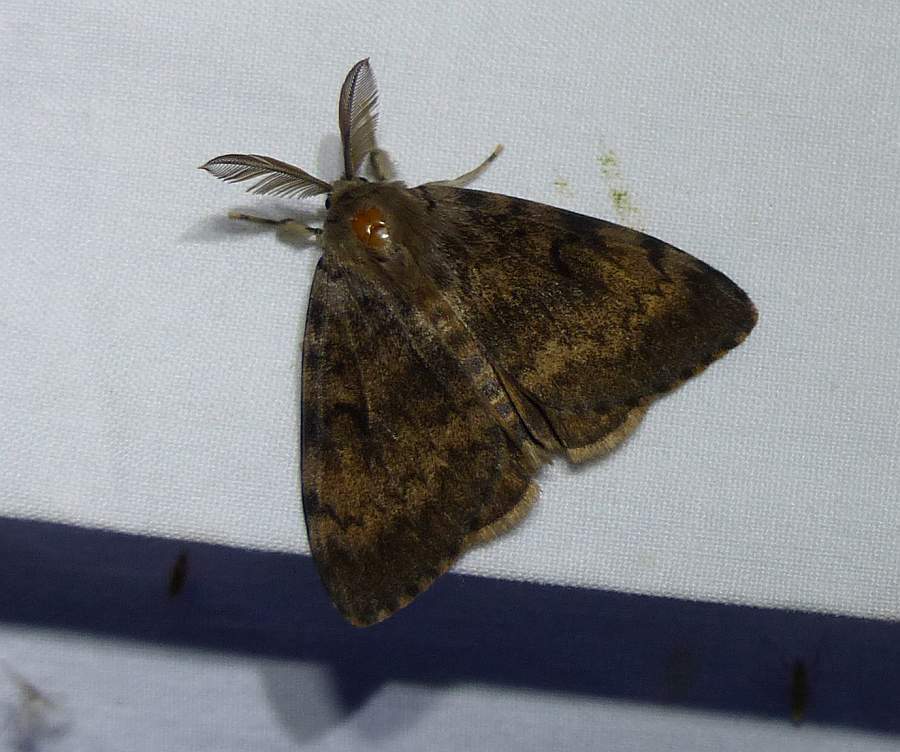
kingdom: Animalia
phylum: Arthropoda
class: Insecta
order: Lepidoptera
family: Erebidae
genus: Lymantria
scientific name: Lymantria dispar
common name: Gypsy moth
